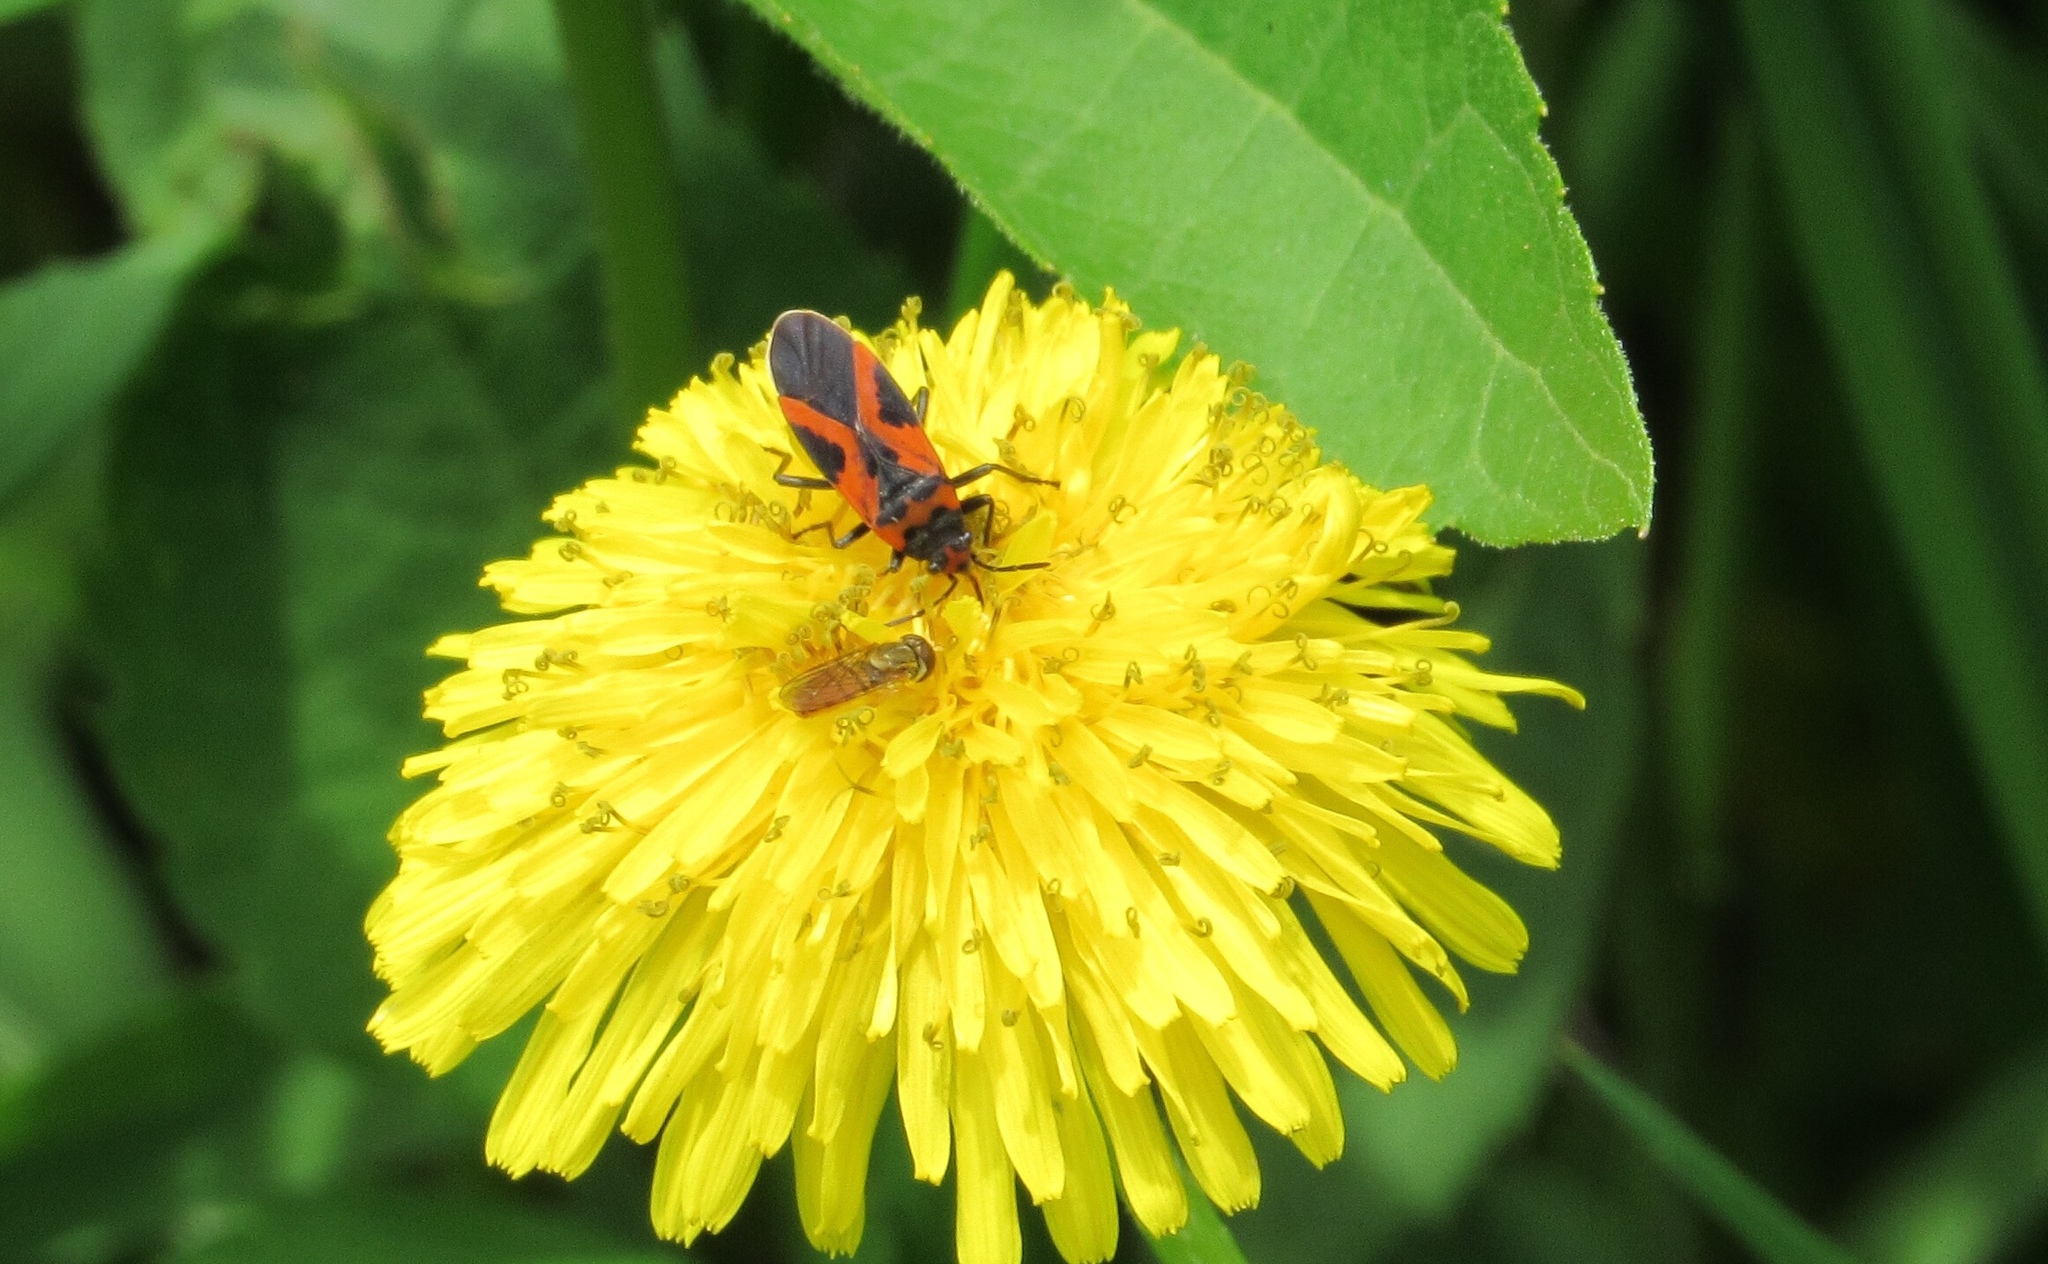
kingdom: Animalia
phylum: Arthropoda
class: Insecta
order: Hemiptera
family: Lygaeidae
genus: Lygaeus
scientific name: Lygaeus turcicus
